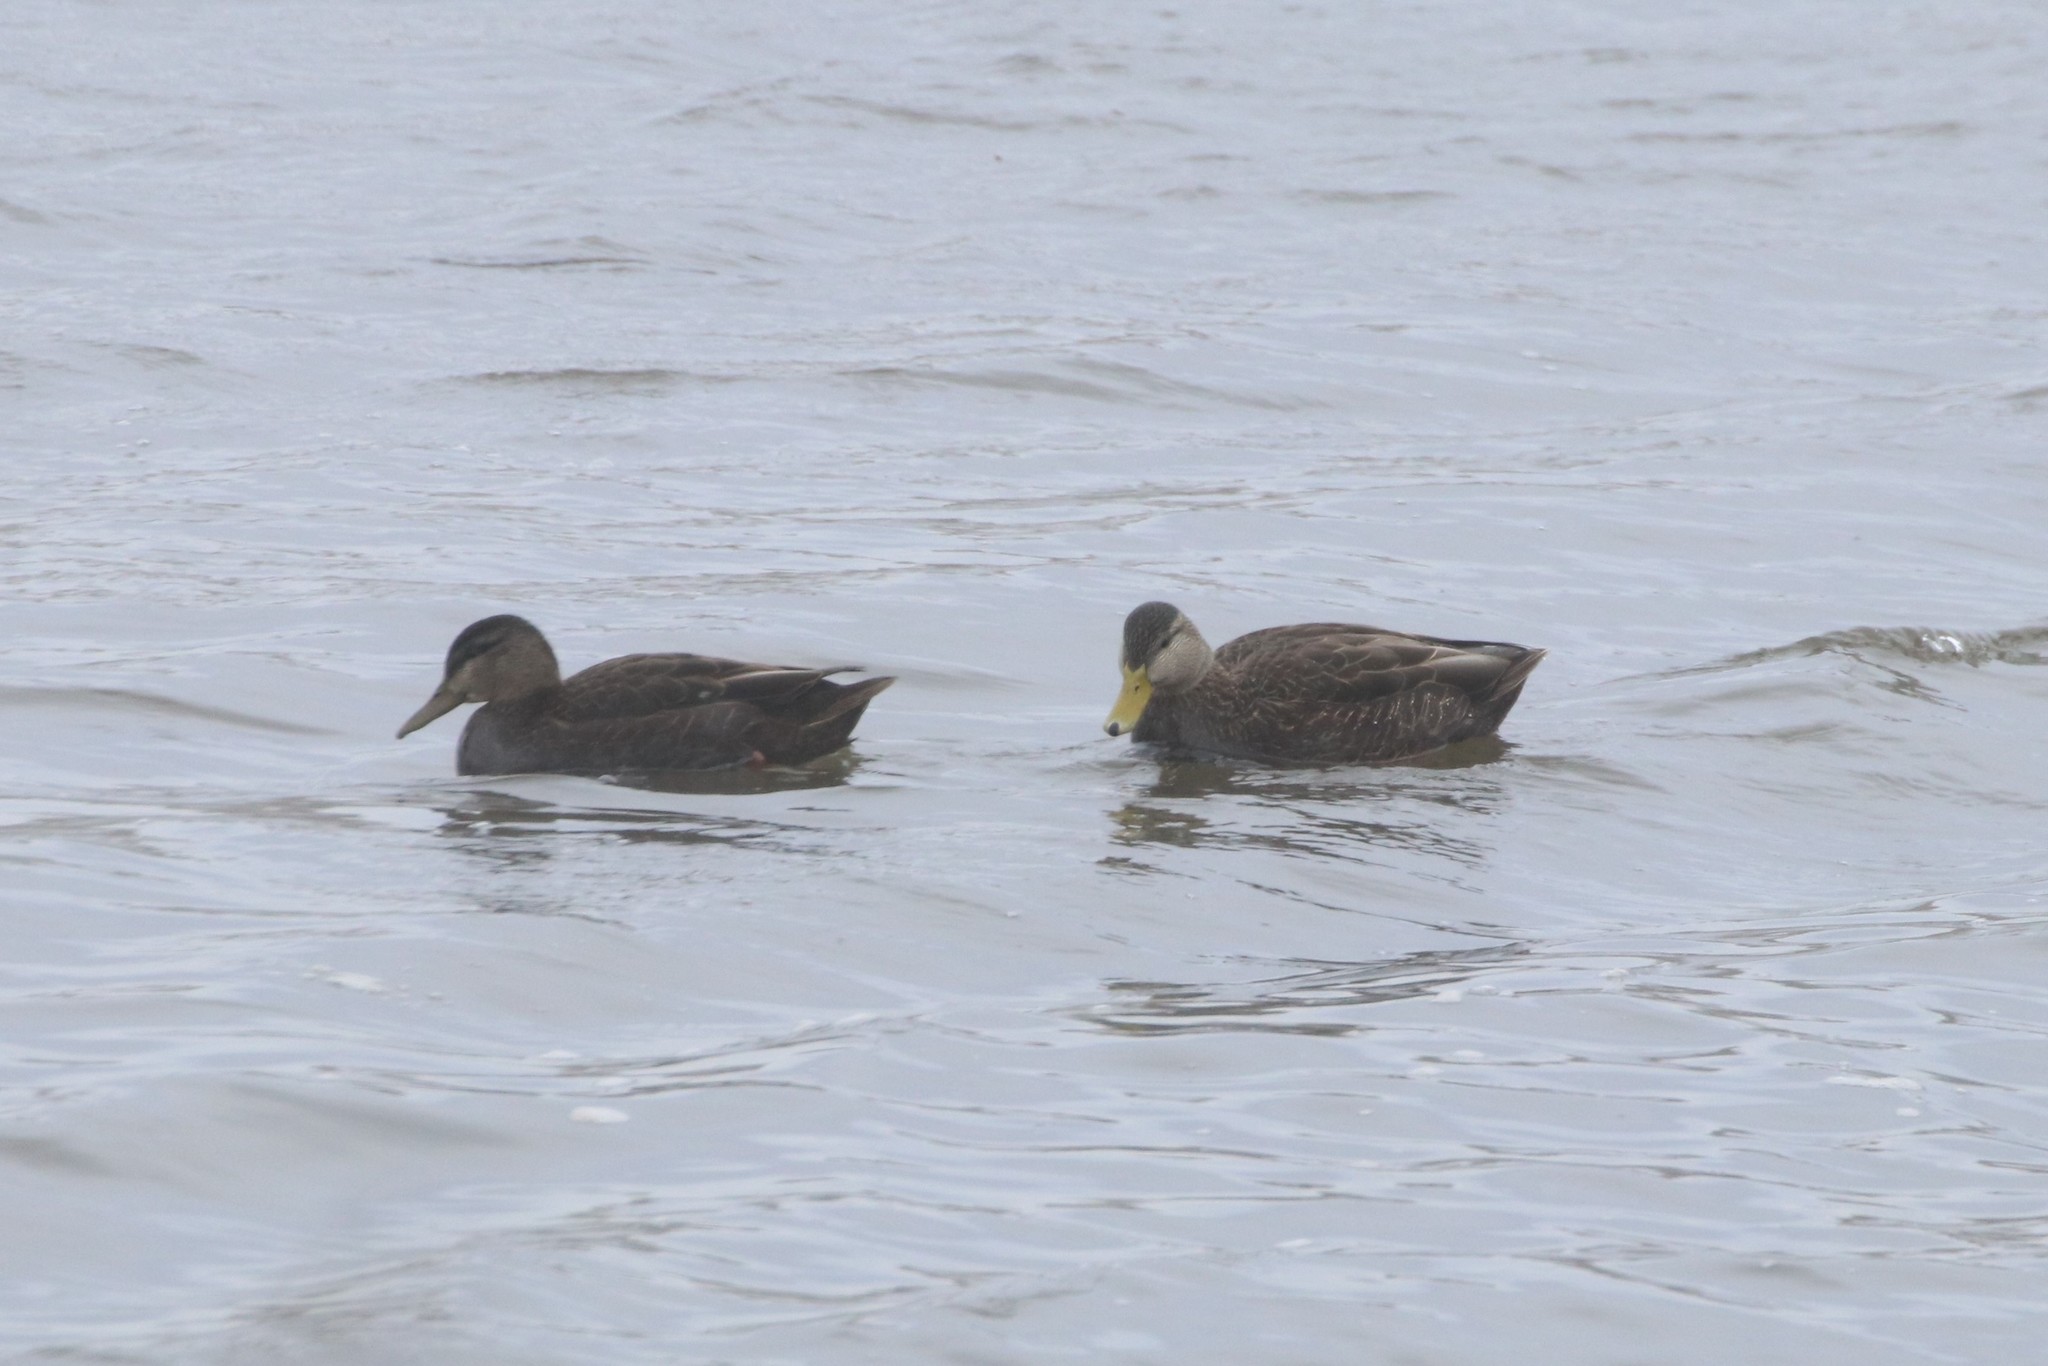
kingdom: Animalia
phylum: Chordata
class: Aves
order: Anseriformes
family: Anatidae
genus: Anas
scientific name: Anas rubripes
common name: American black duck
